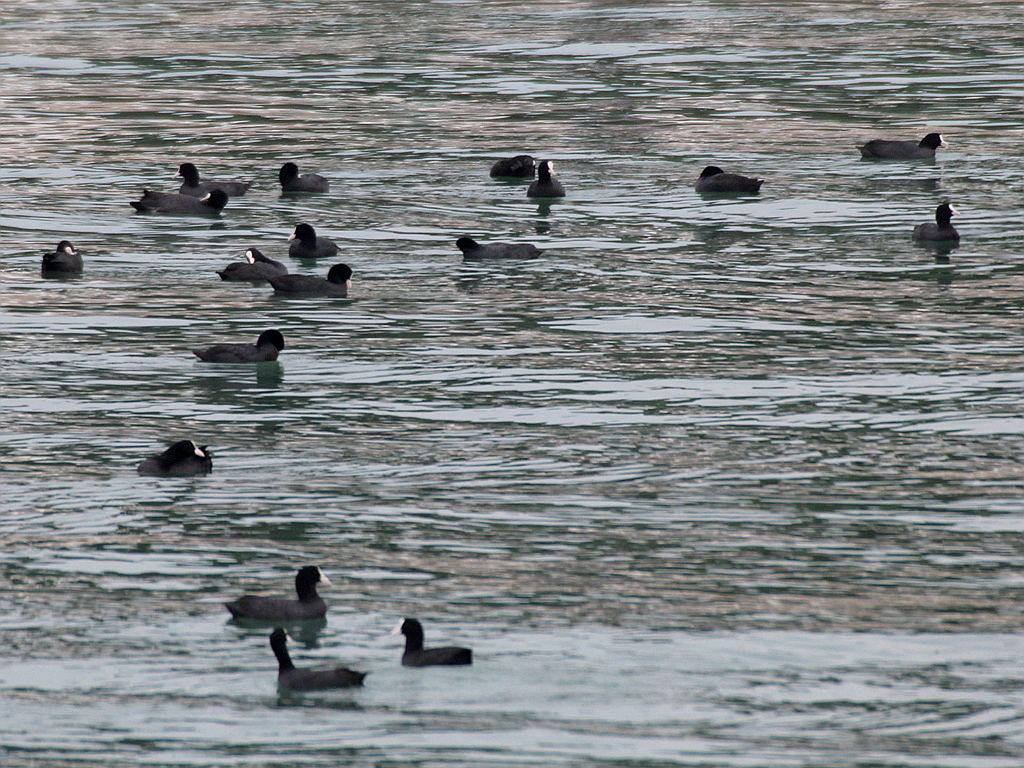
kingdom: Animalia
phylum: Chordata
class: Aves
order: Gruiformes
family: Rallidae
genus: Fulica
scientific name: Fulica atra
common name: Eurasian coot
